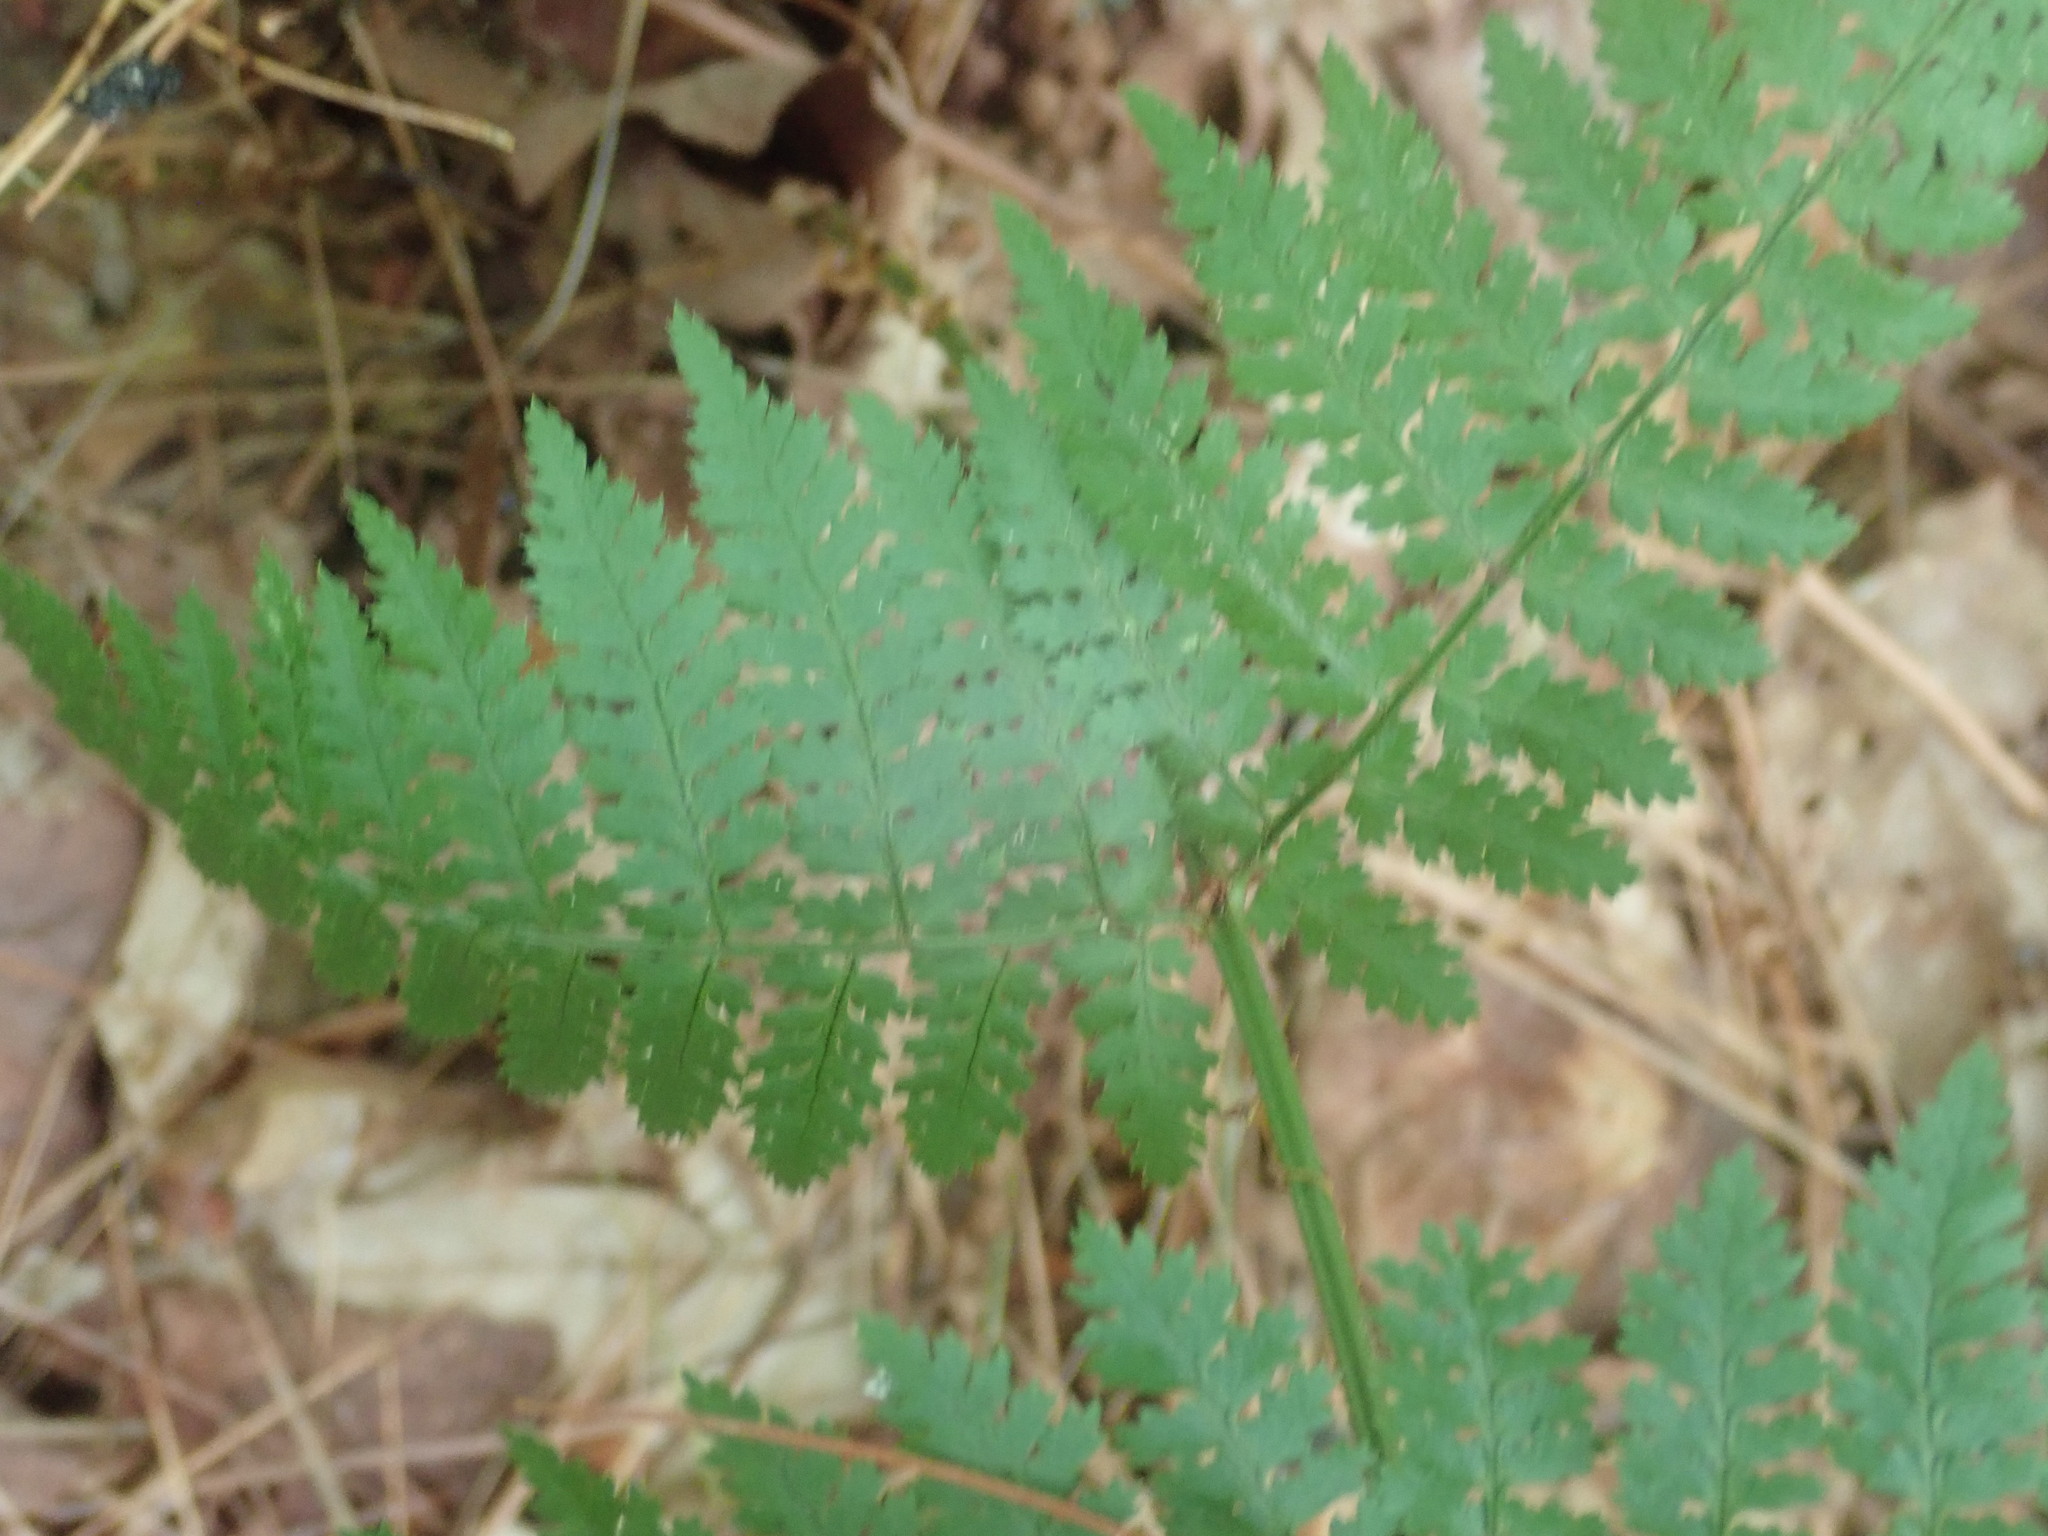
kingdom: Plantae
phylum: Tracheophyta
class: Polypodiopsida
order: Polypodiales
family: Dryopteridaceae
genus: Dryopteris
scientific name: Dryopteris intermedia
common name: Evergreen wood fern
